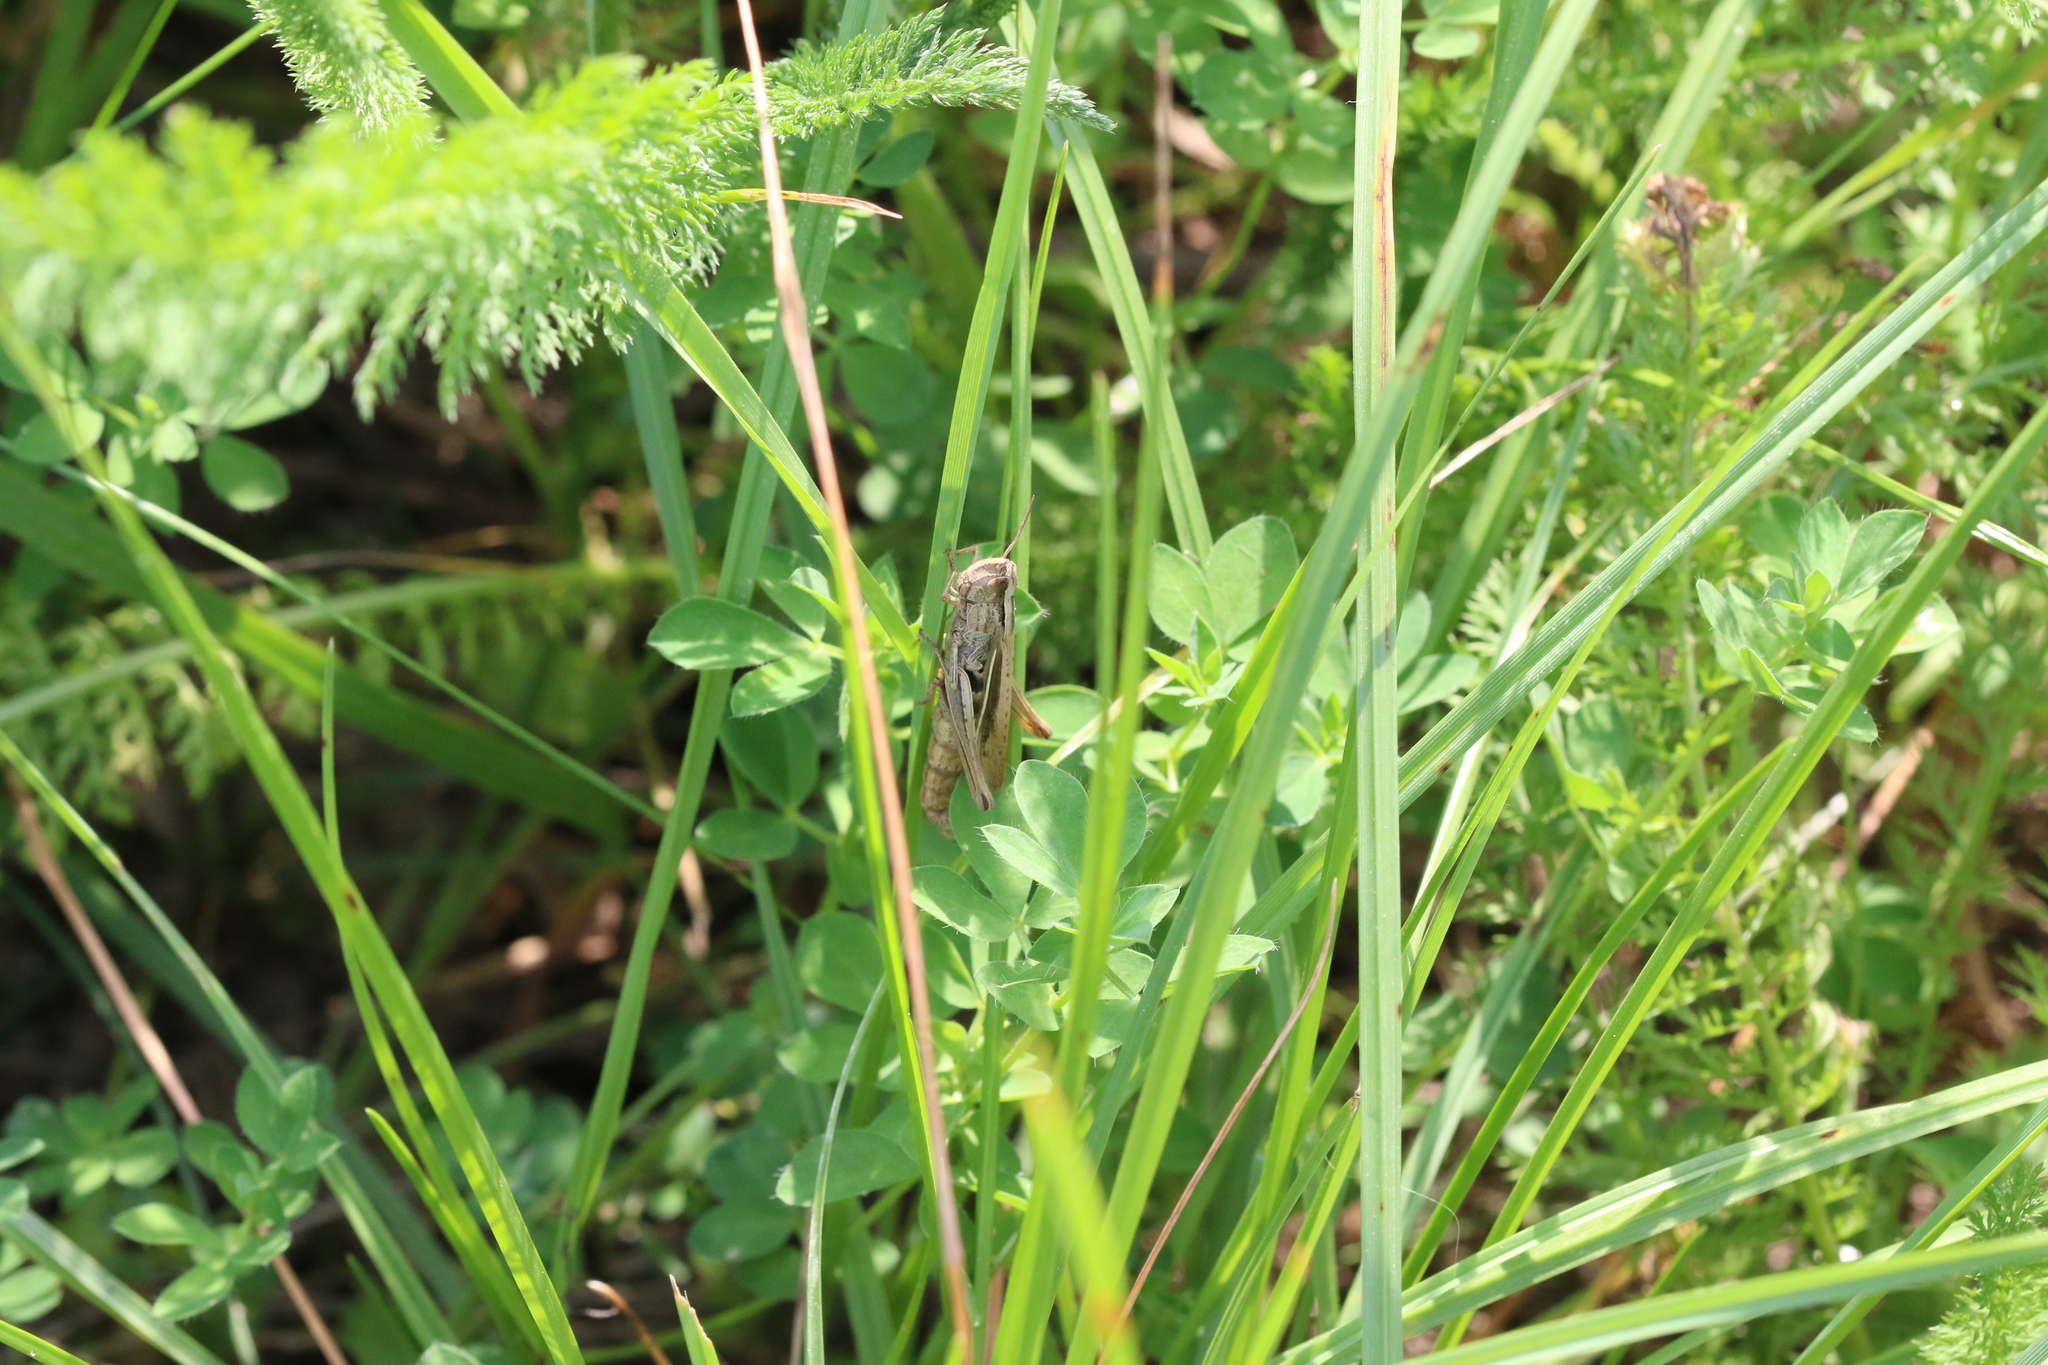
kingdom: Animalia
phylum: Arthropoda
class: Insecta
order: Orthoptera
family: Acrididae
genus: Chorthippus
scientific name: Chorthippus albomarginatus
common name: Lesser marsh grasshopper
